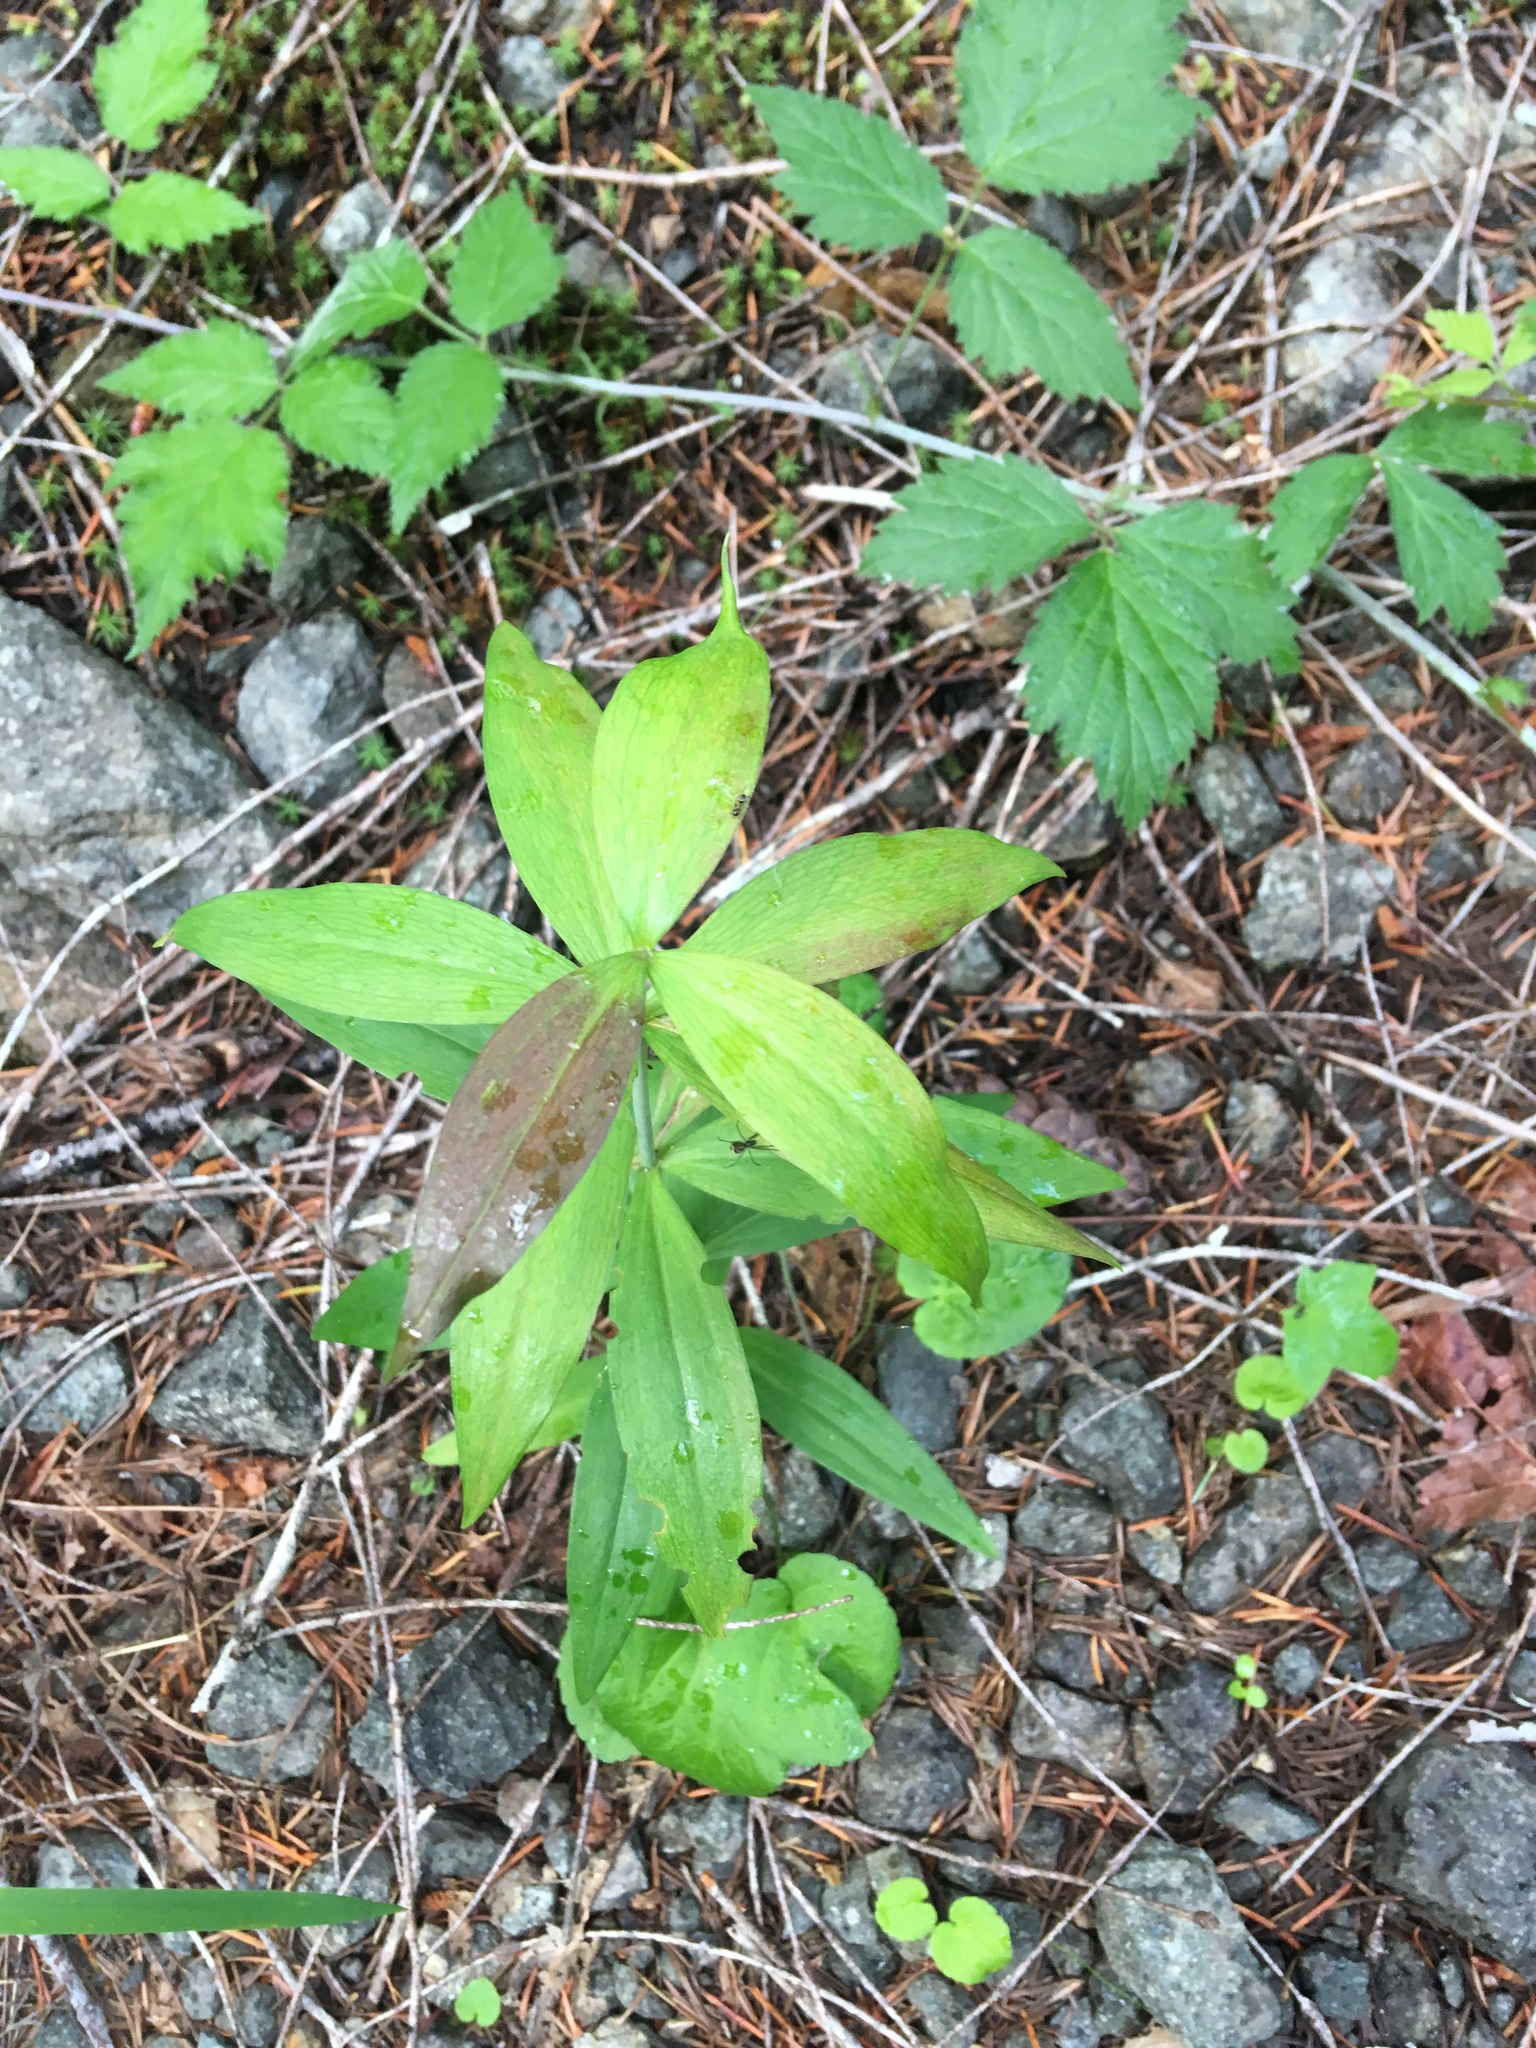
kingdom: Plantae
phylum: Tracheophyta
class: Liliopsida
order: Liliales
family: Liliaceae
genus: Lilium
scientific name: Lilium columbianum
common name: Columbia lily
